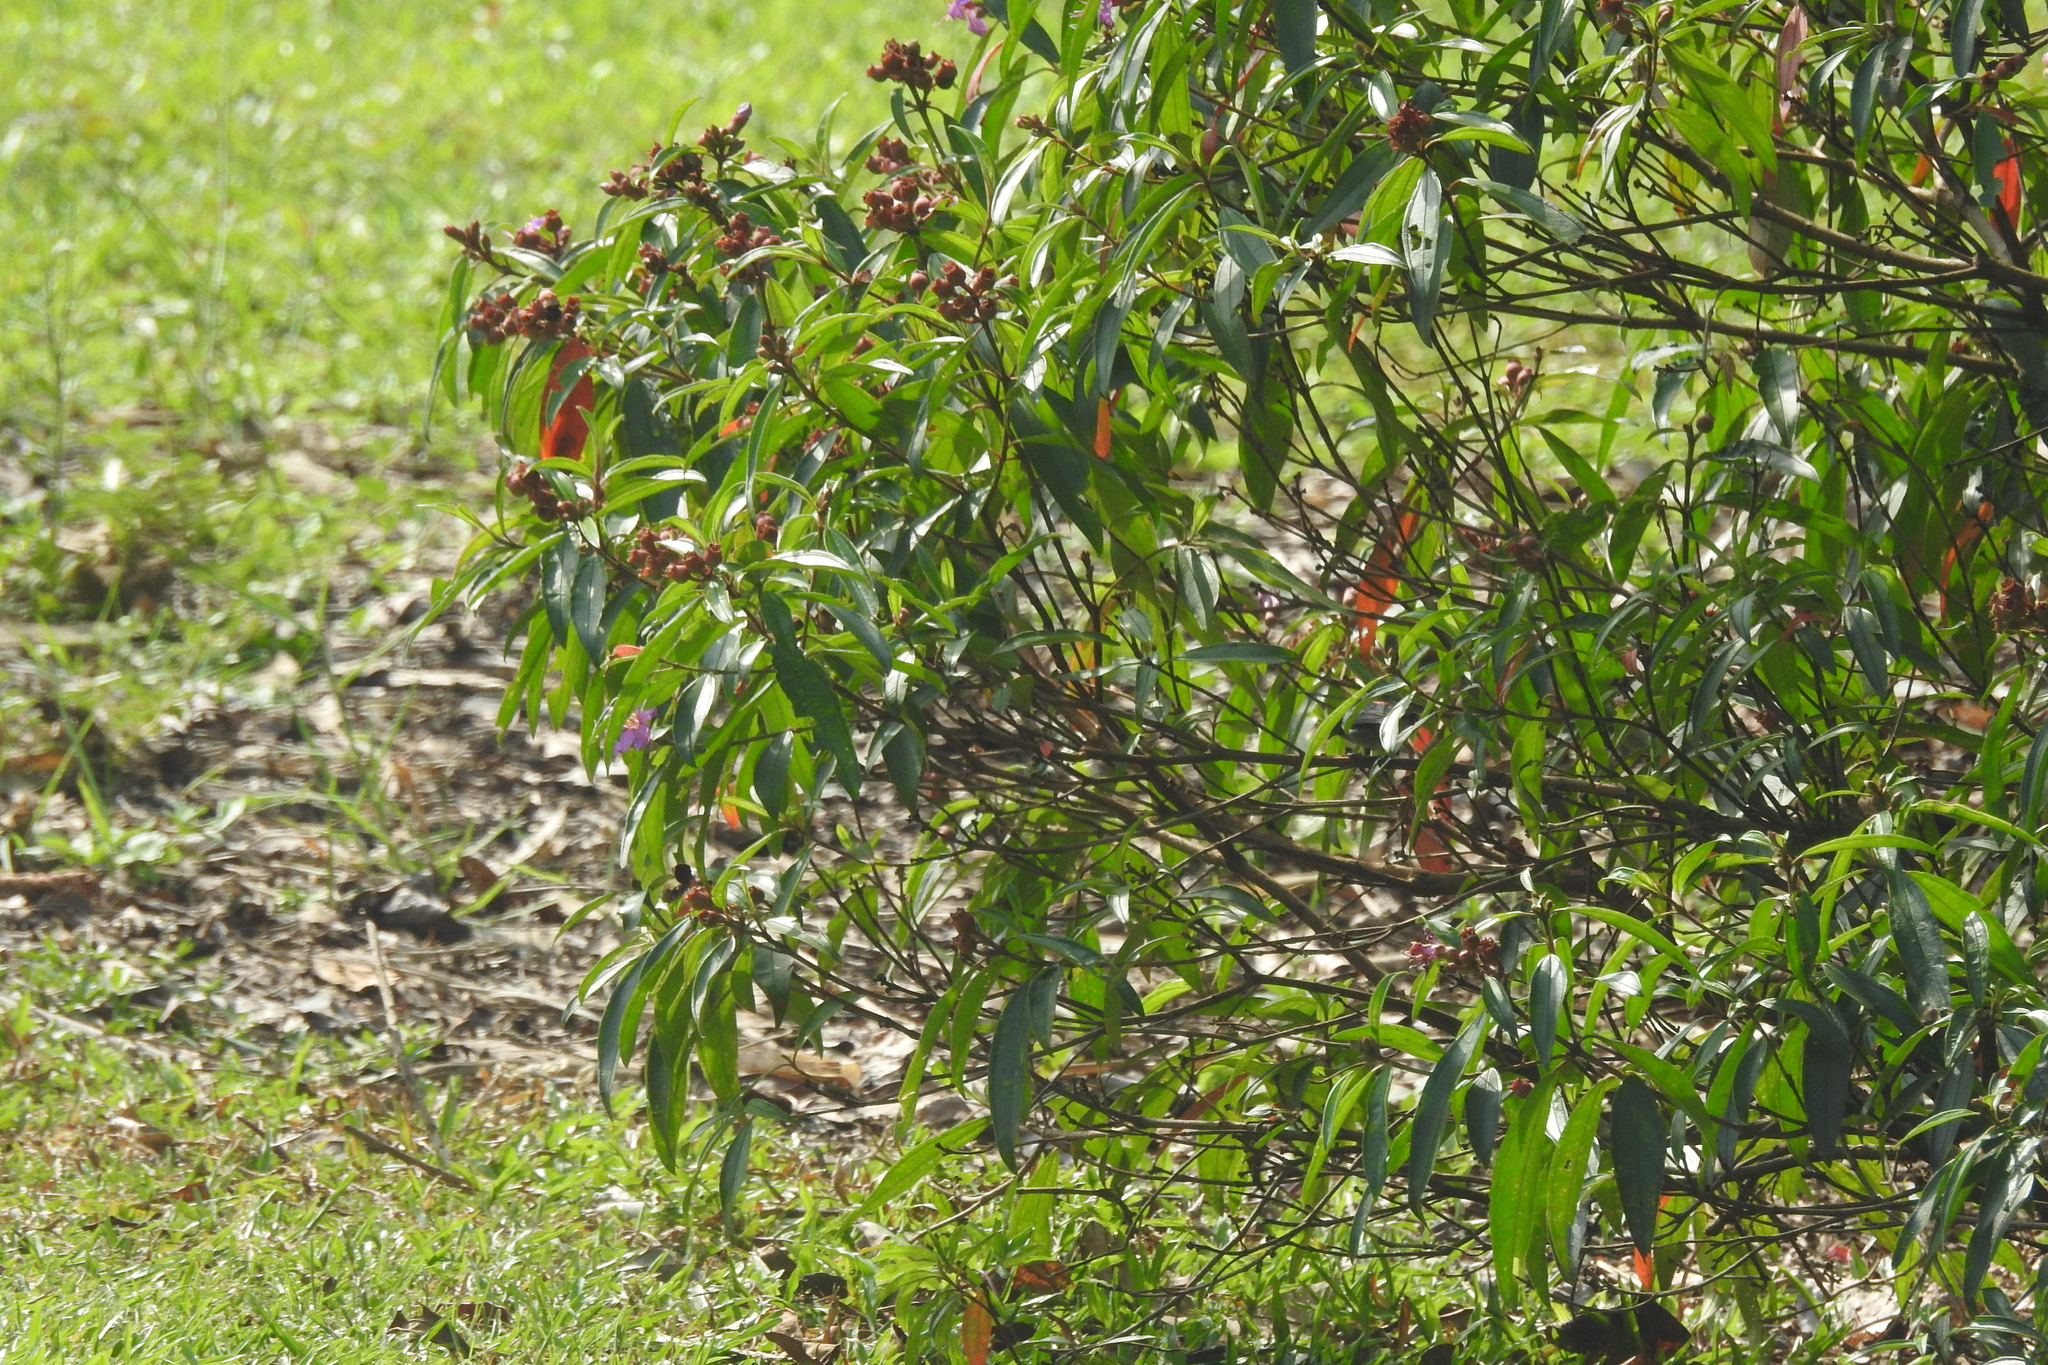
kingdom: Plantae
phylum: Tracheophyta
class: Magnoliopsida
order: Myrtales
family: Melastomataceae
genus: Melastoma
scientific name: Melastoma malabathricum
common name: Indian-rhododendron
